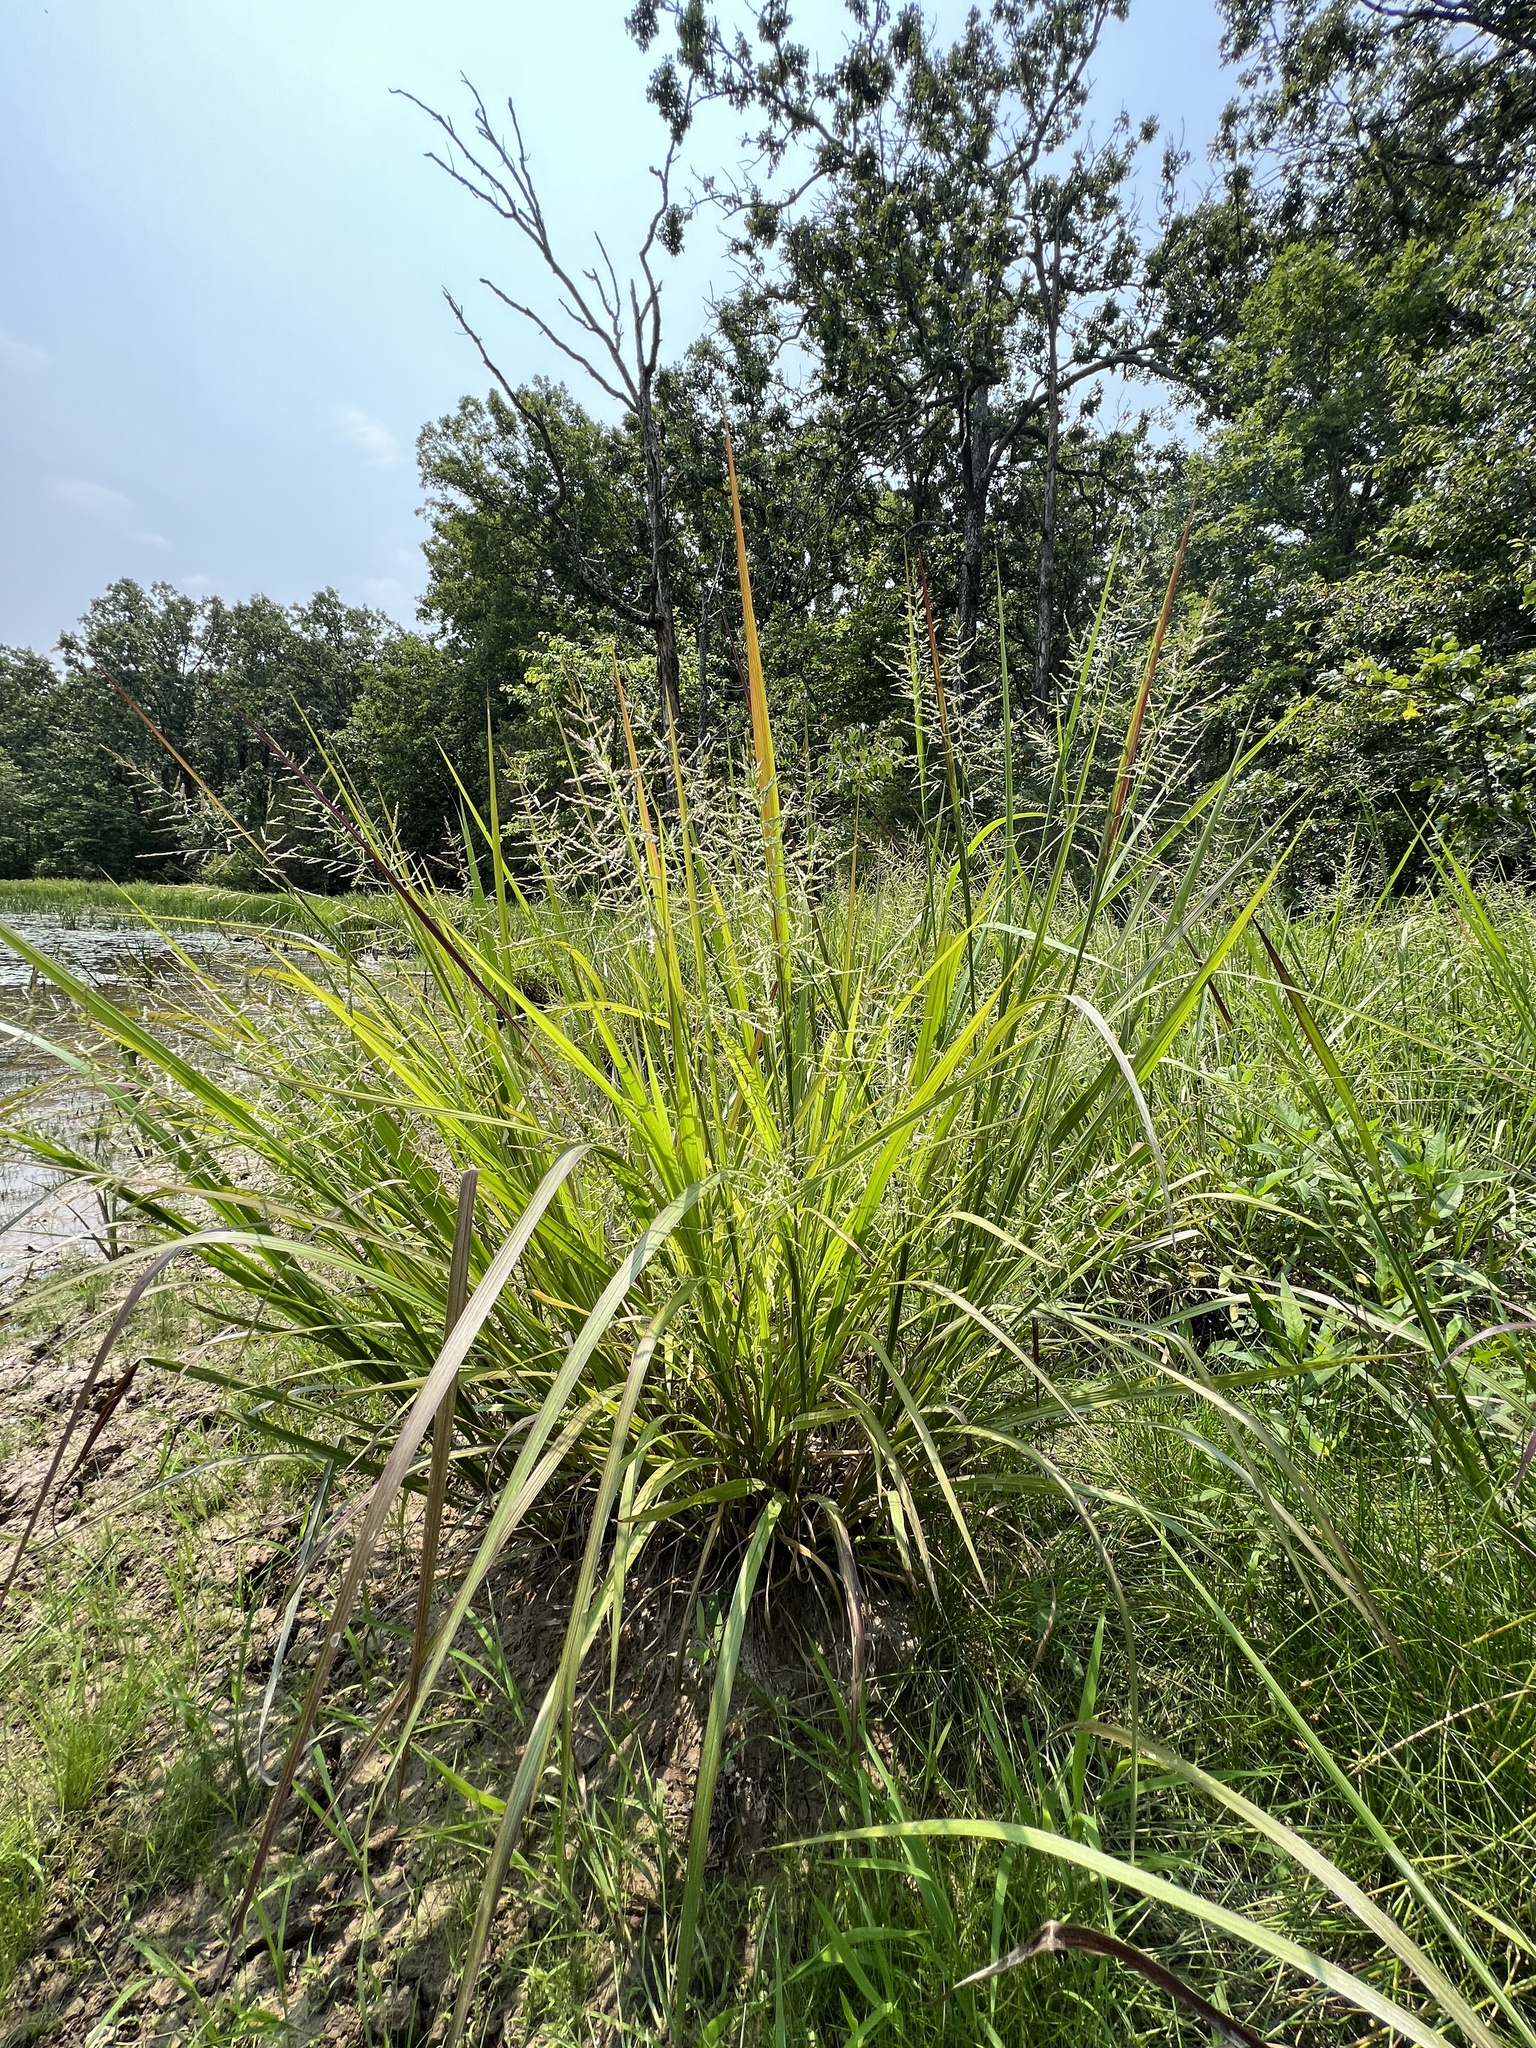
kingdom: Plantae
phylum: Tracheophyta
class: Liliopsida
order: Poales
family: Poaceae
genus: Coleataenia
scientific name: Coleataenia rigidula
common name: Redtop panicgrass
